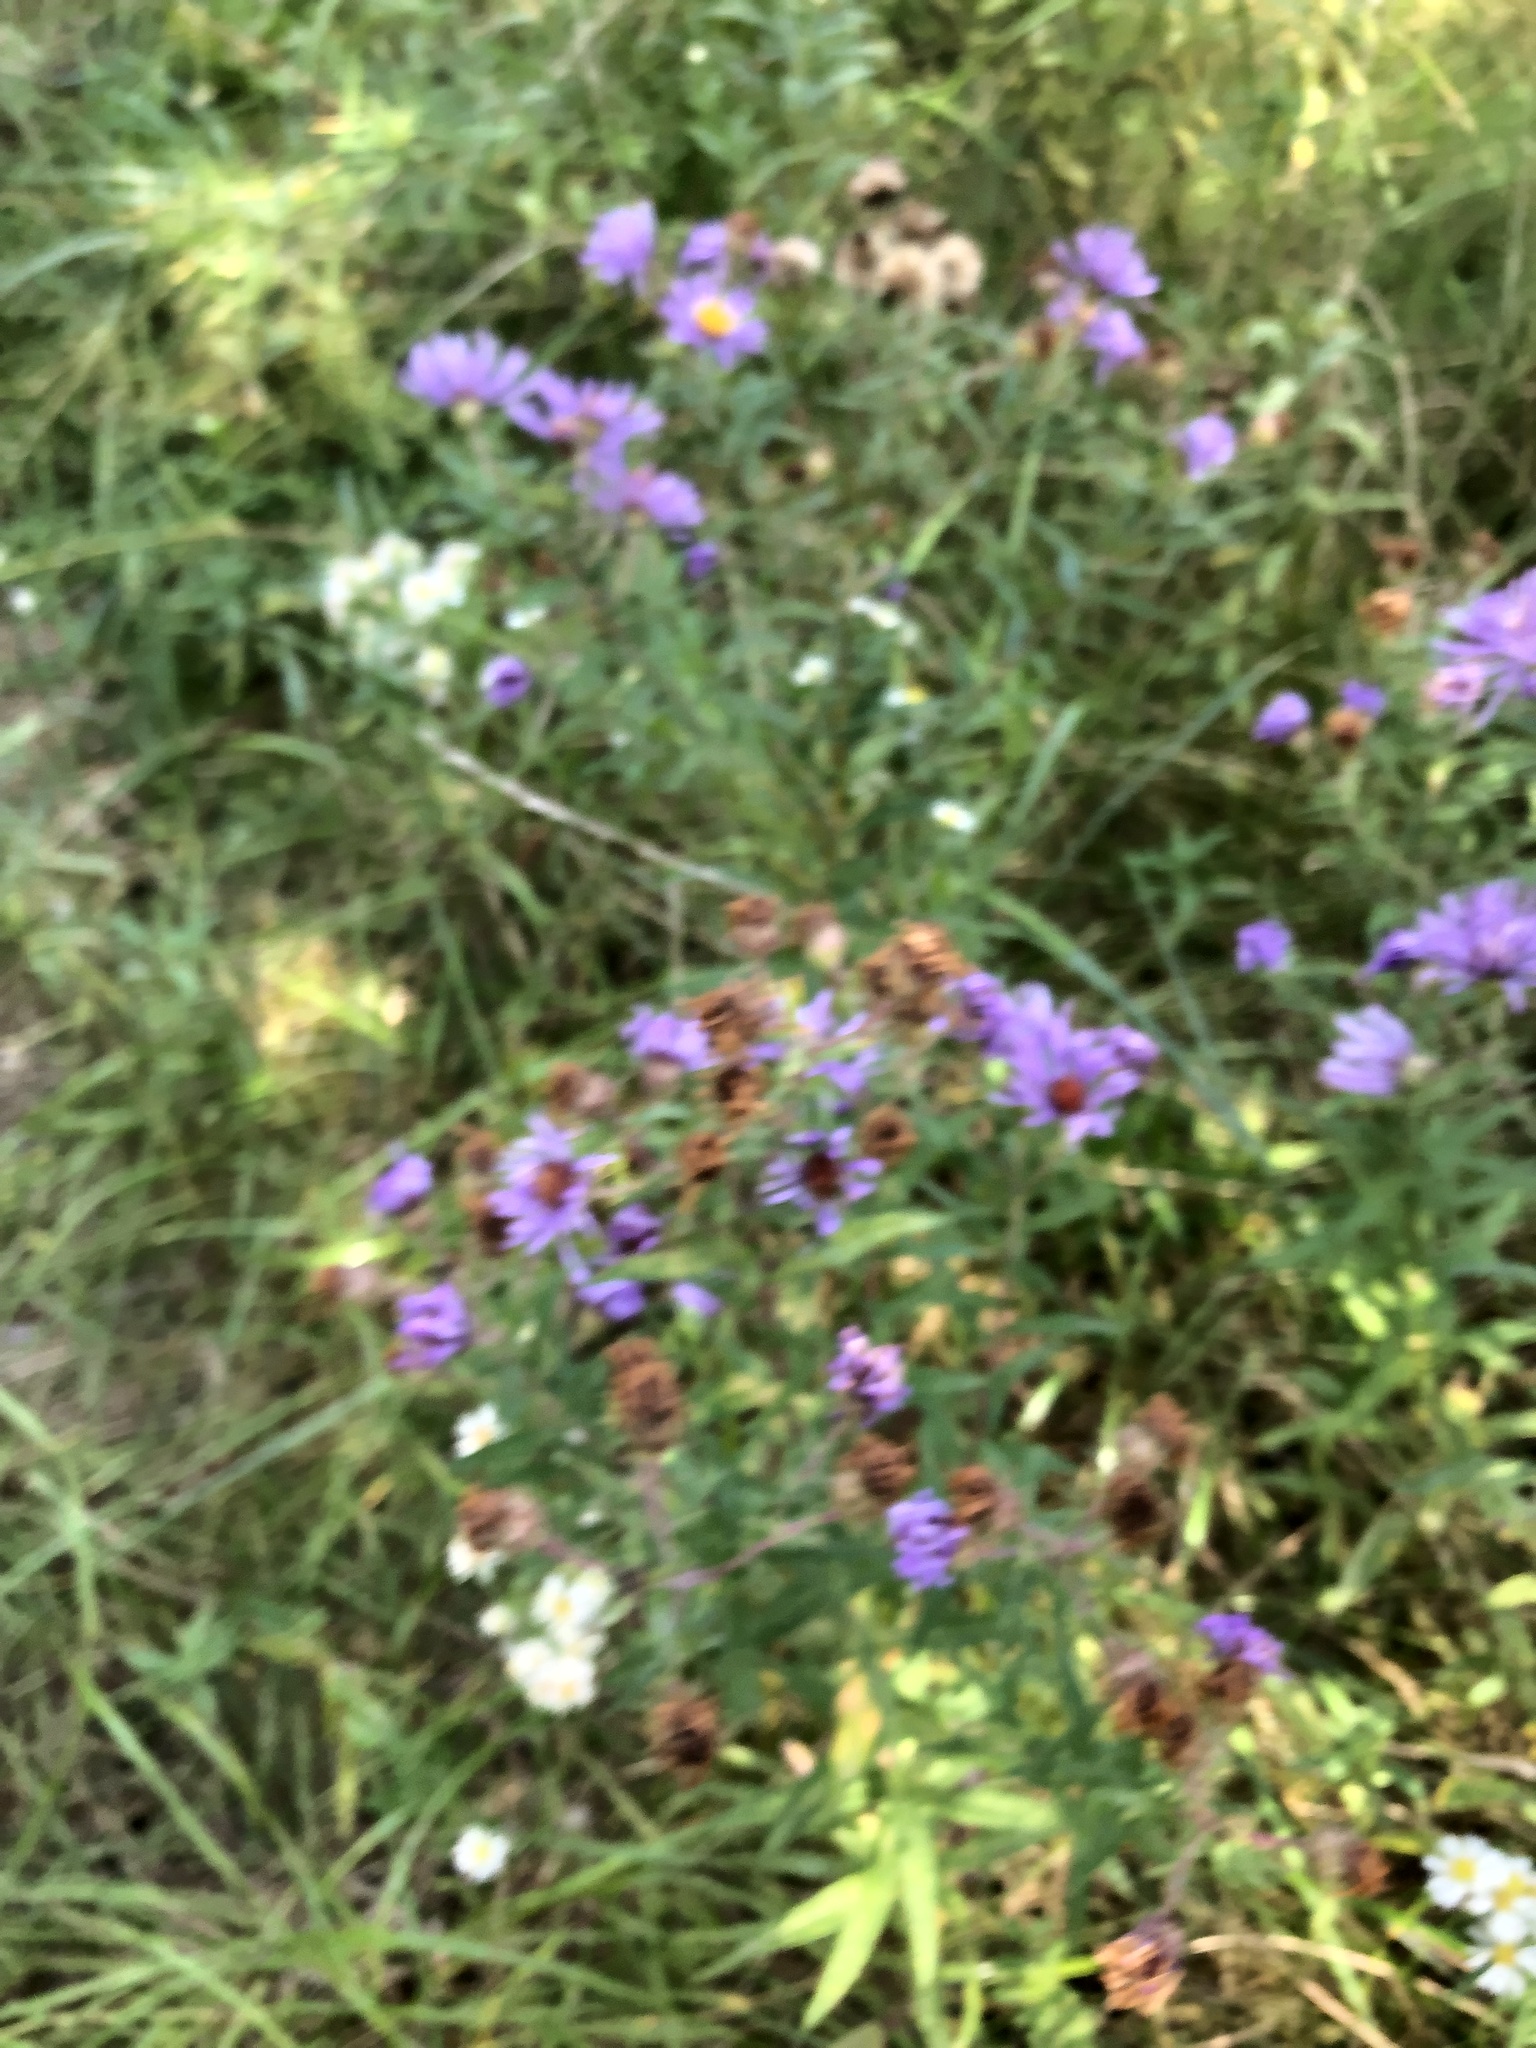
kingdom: Plantae
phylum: Tracheophyta
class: Magnoliopsida
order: Asterales
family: Asteraceae
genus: Symphyotrichum
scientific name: Symphyotrichum novae-angliae
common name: Michaelmas daisy
